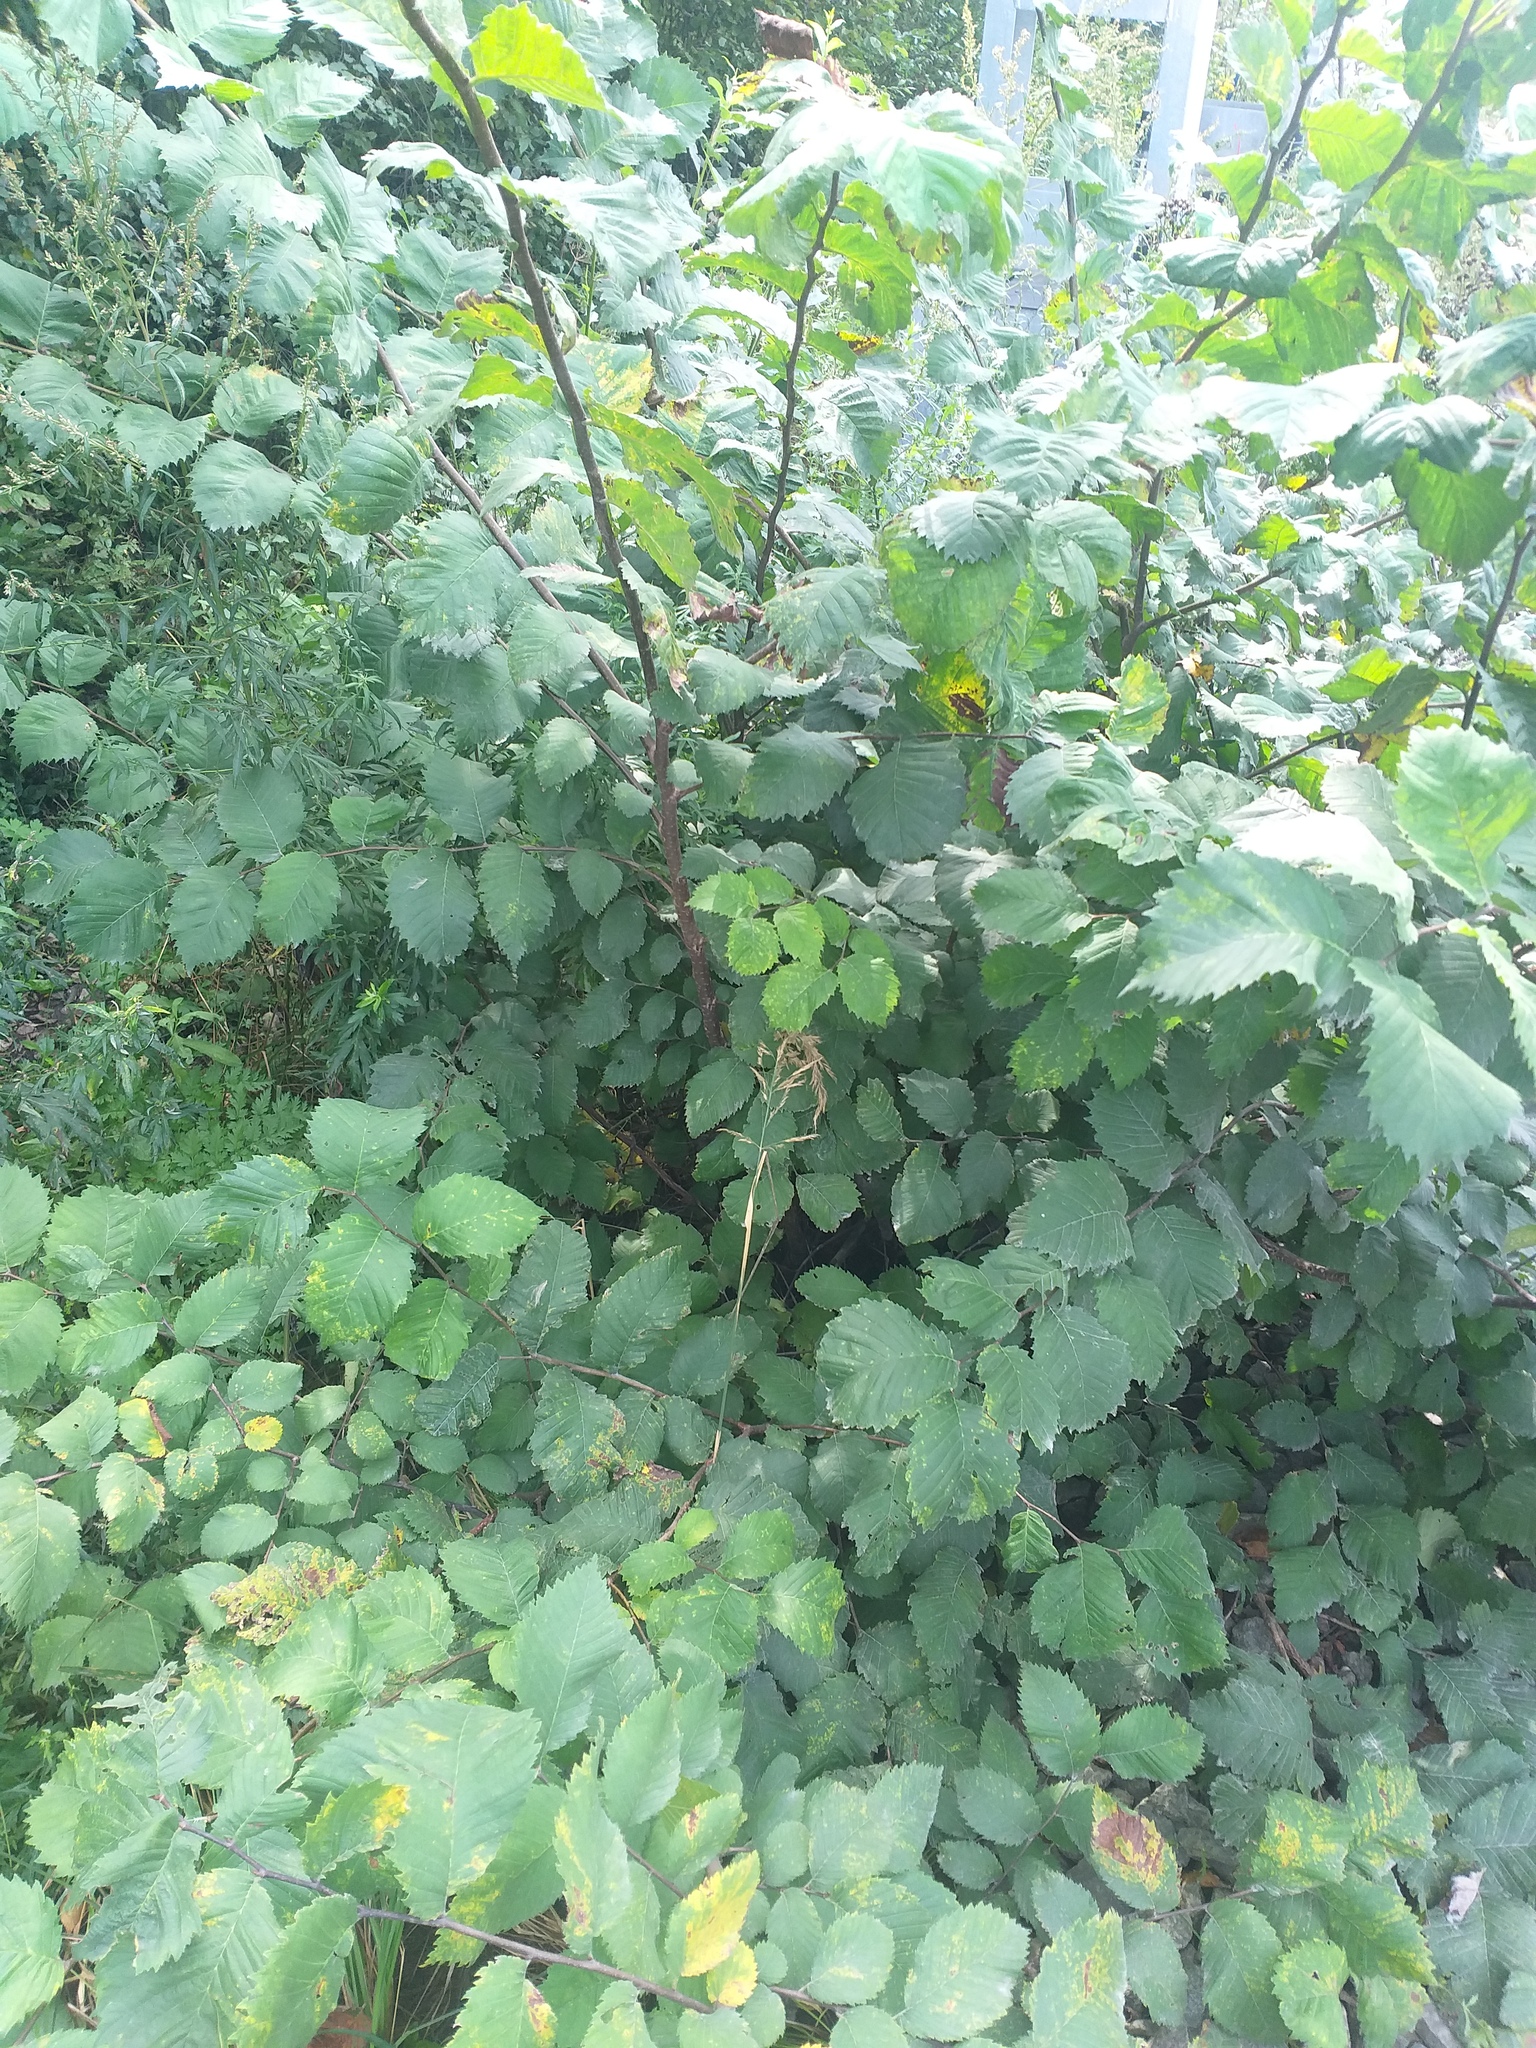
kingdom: Plantae
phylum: Tracheophyta
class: Magnoliopsida
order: Rosales
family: Ulmaceae
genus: Ulmus
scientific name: Ulmus laevis
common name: European white-elm
